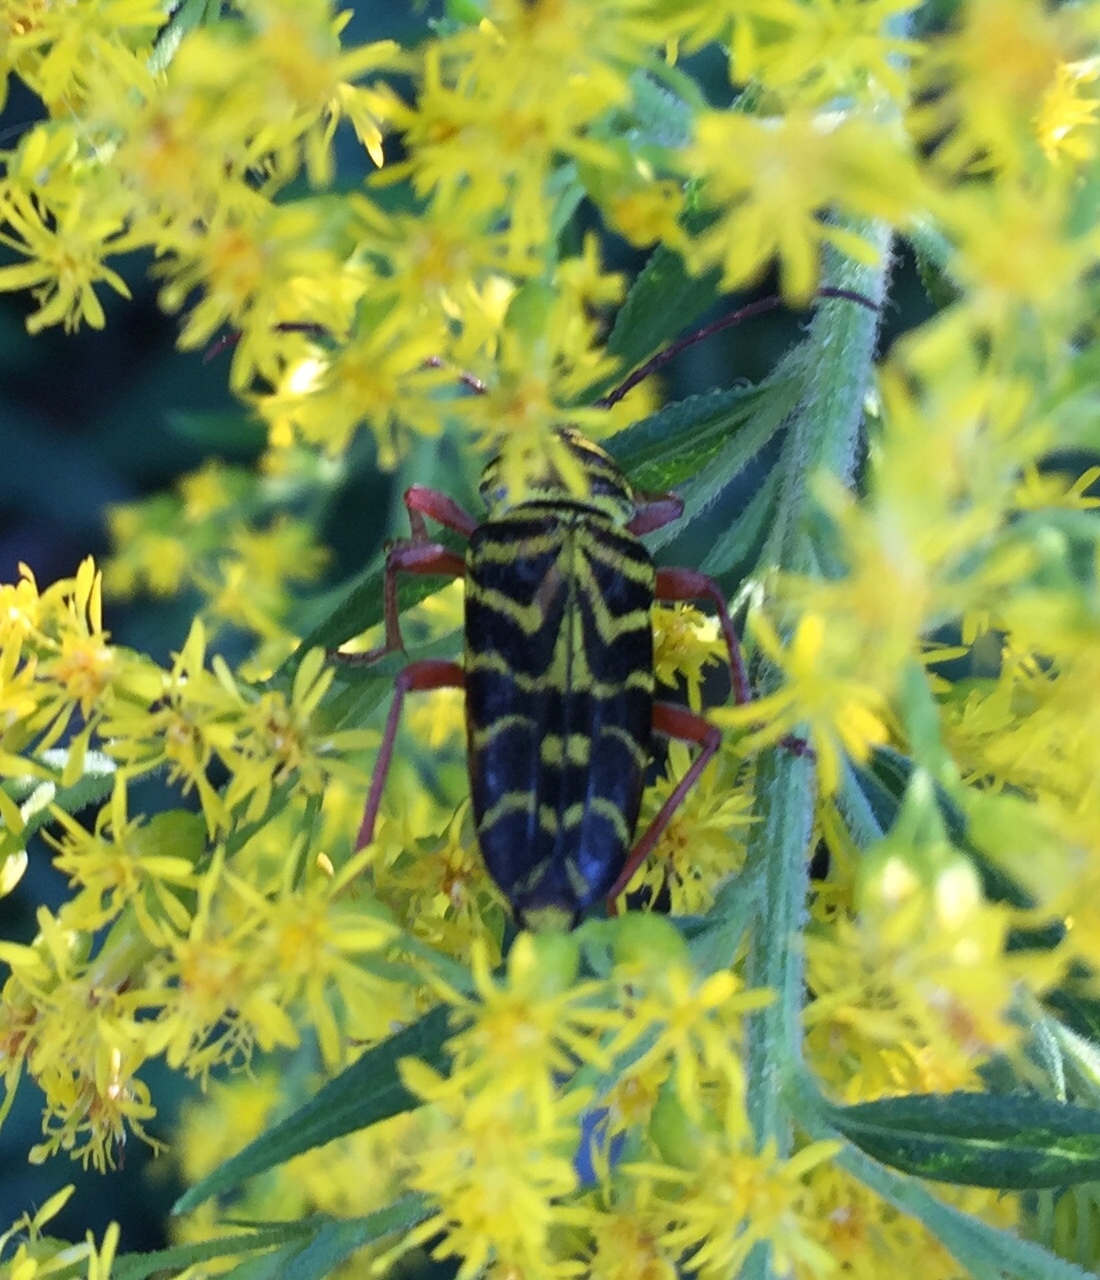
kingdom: Animalia
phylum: Arthropoda
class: Insecta
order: Coleoptera
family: Cerambycidae
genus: Megacyllene
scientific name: Megacyllene robiniae
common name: Locust borer
